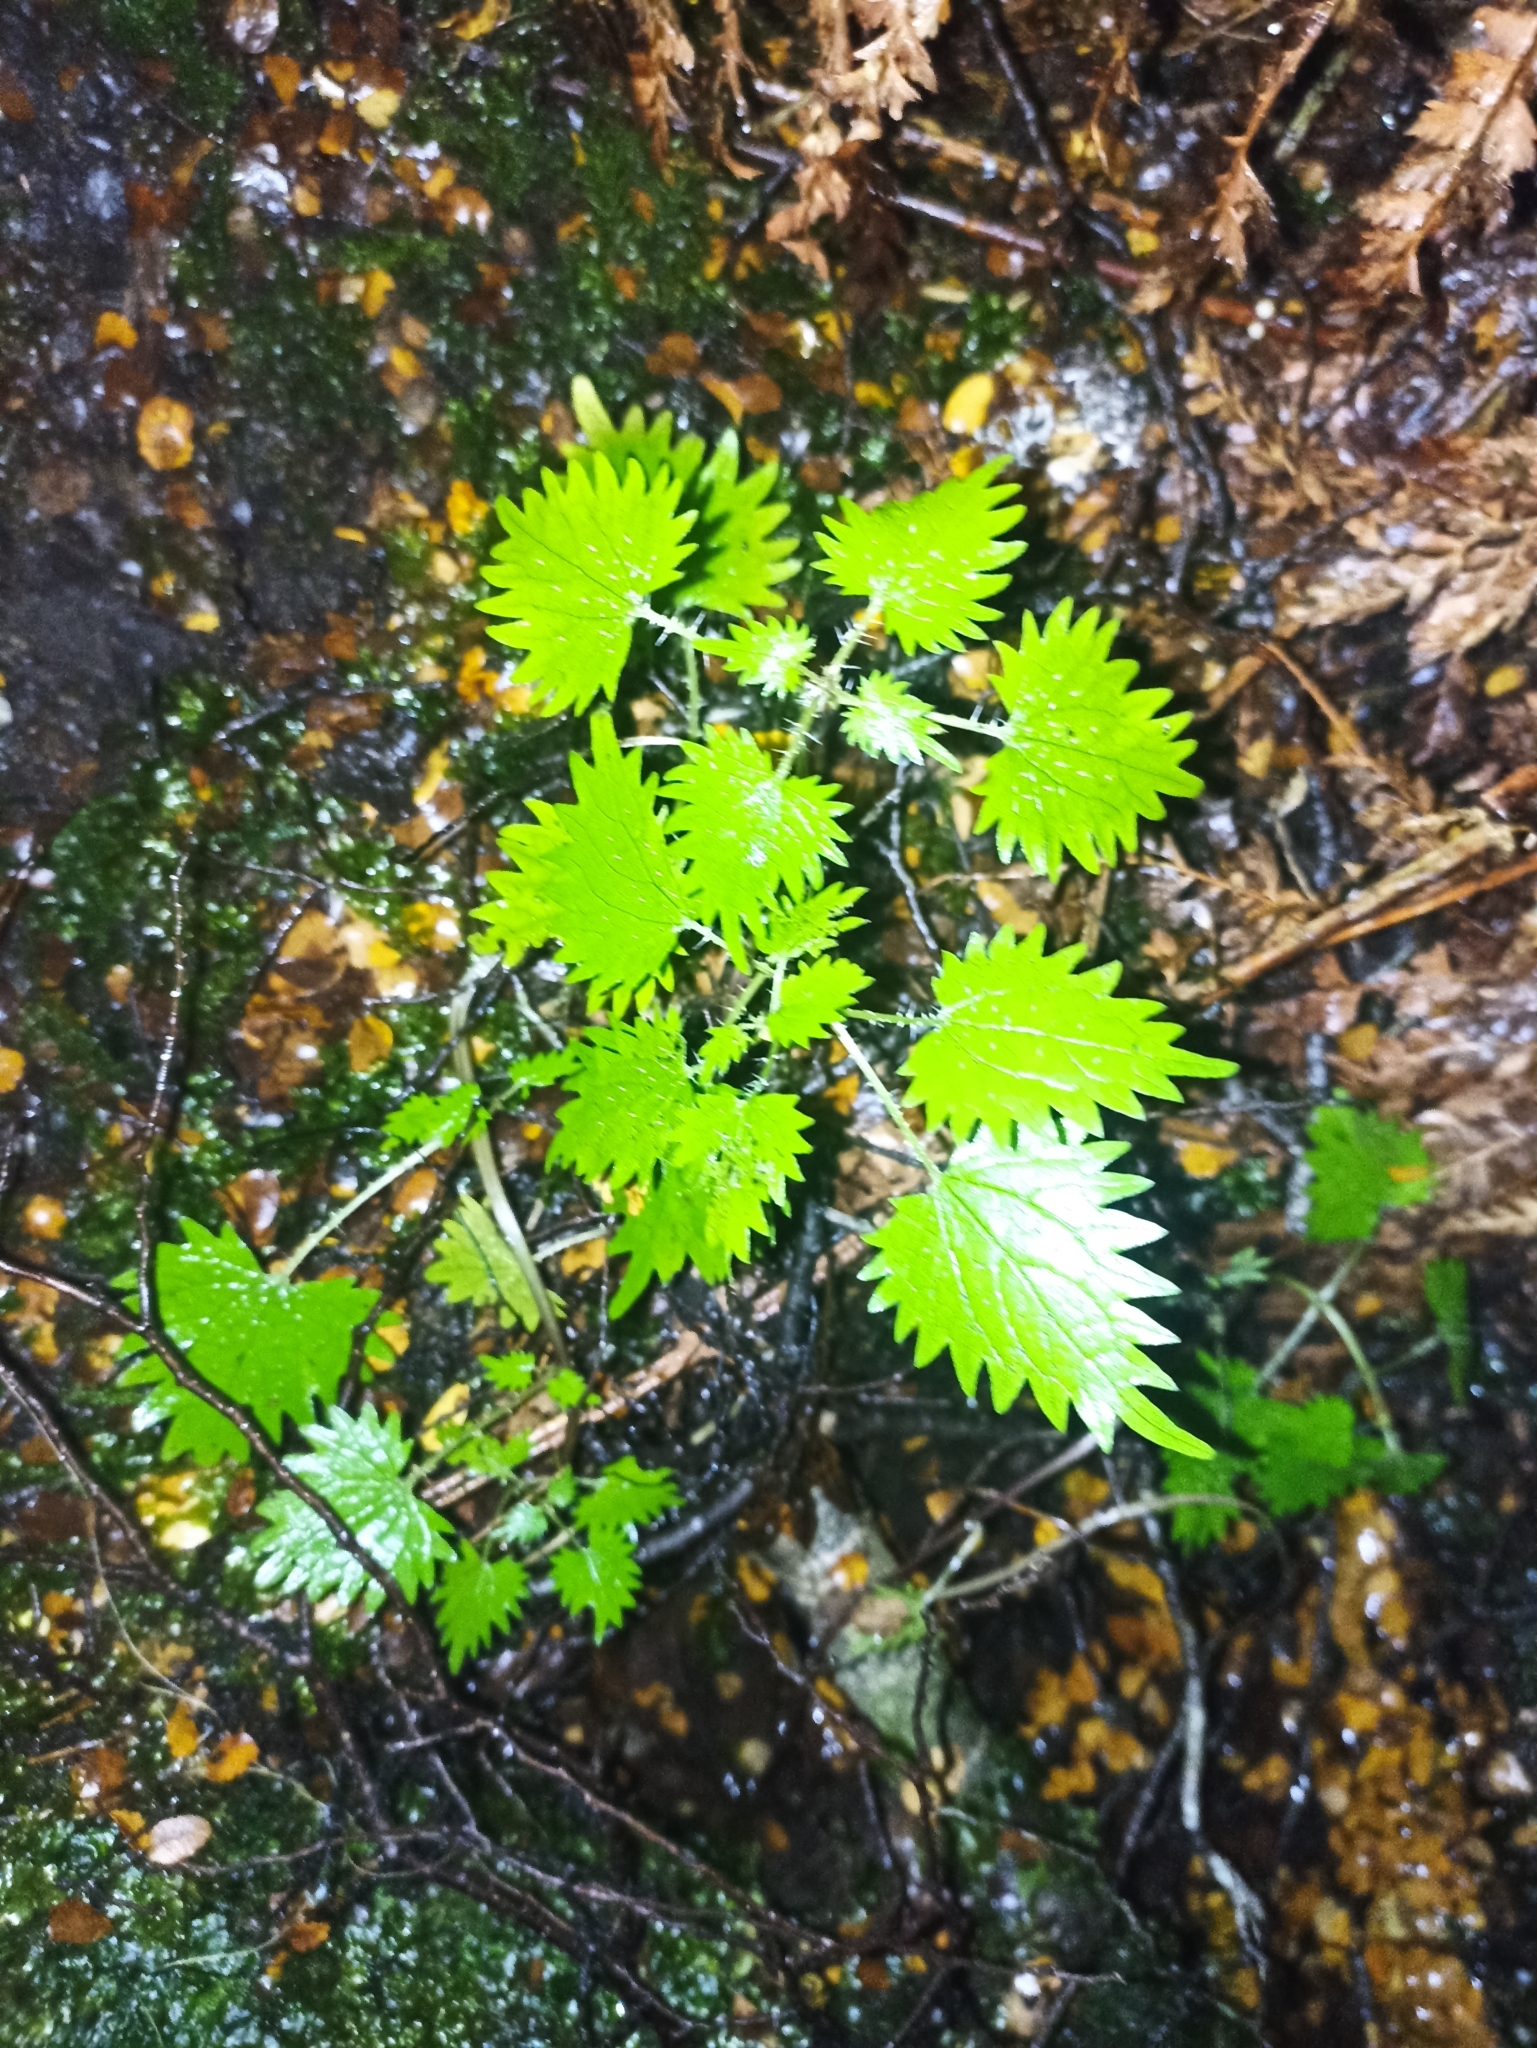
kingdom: Plantae
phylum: Tracheophyta
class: Magnoliopsida
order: Rosales
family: Urticaceae
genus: Urtica
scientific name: Urtica sykesii
